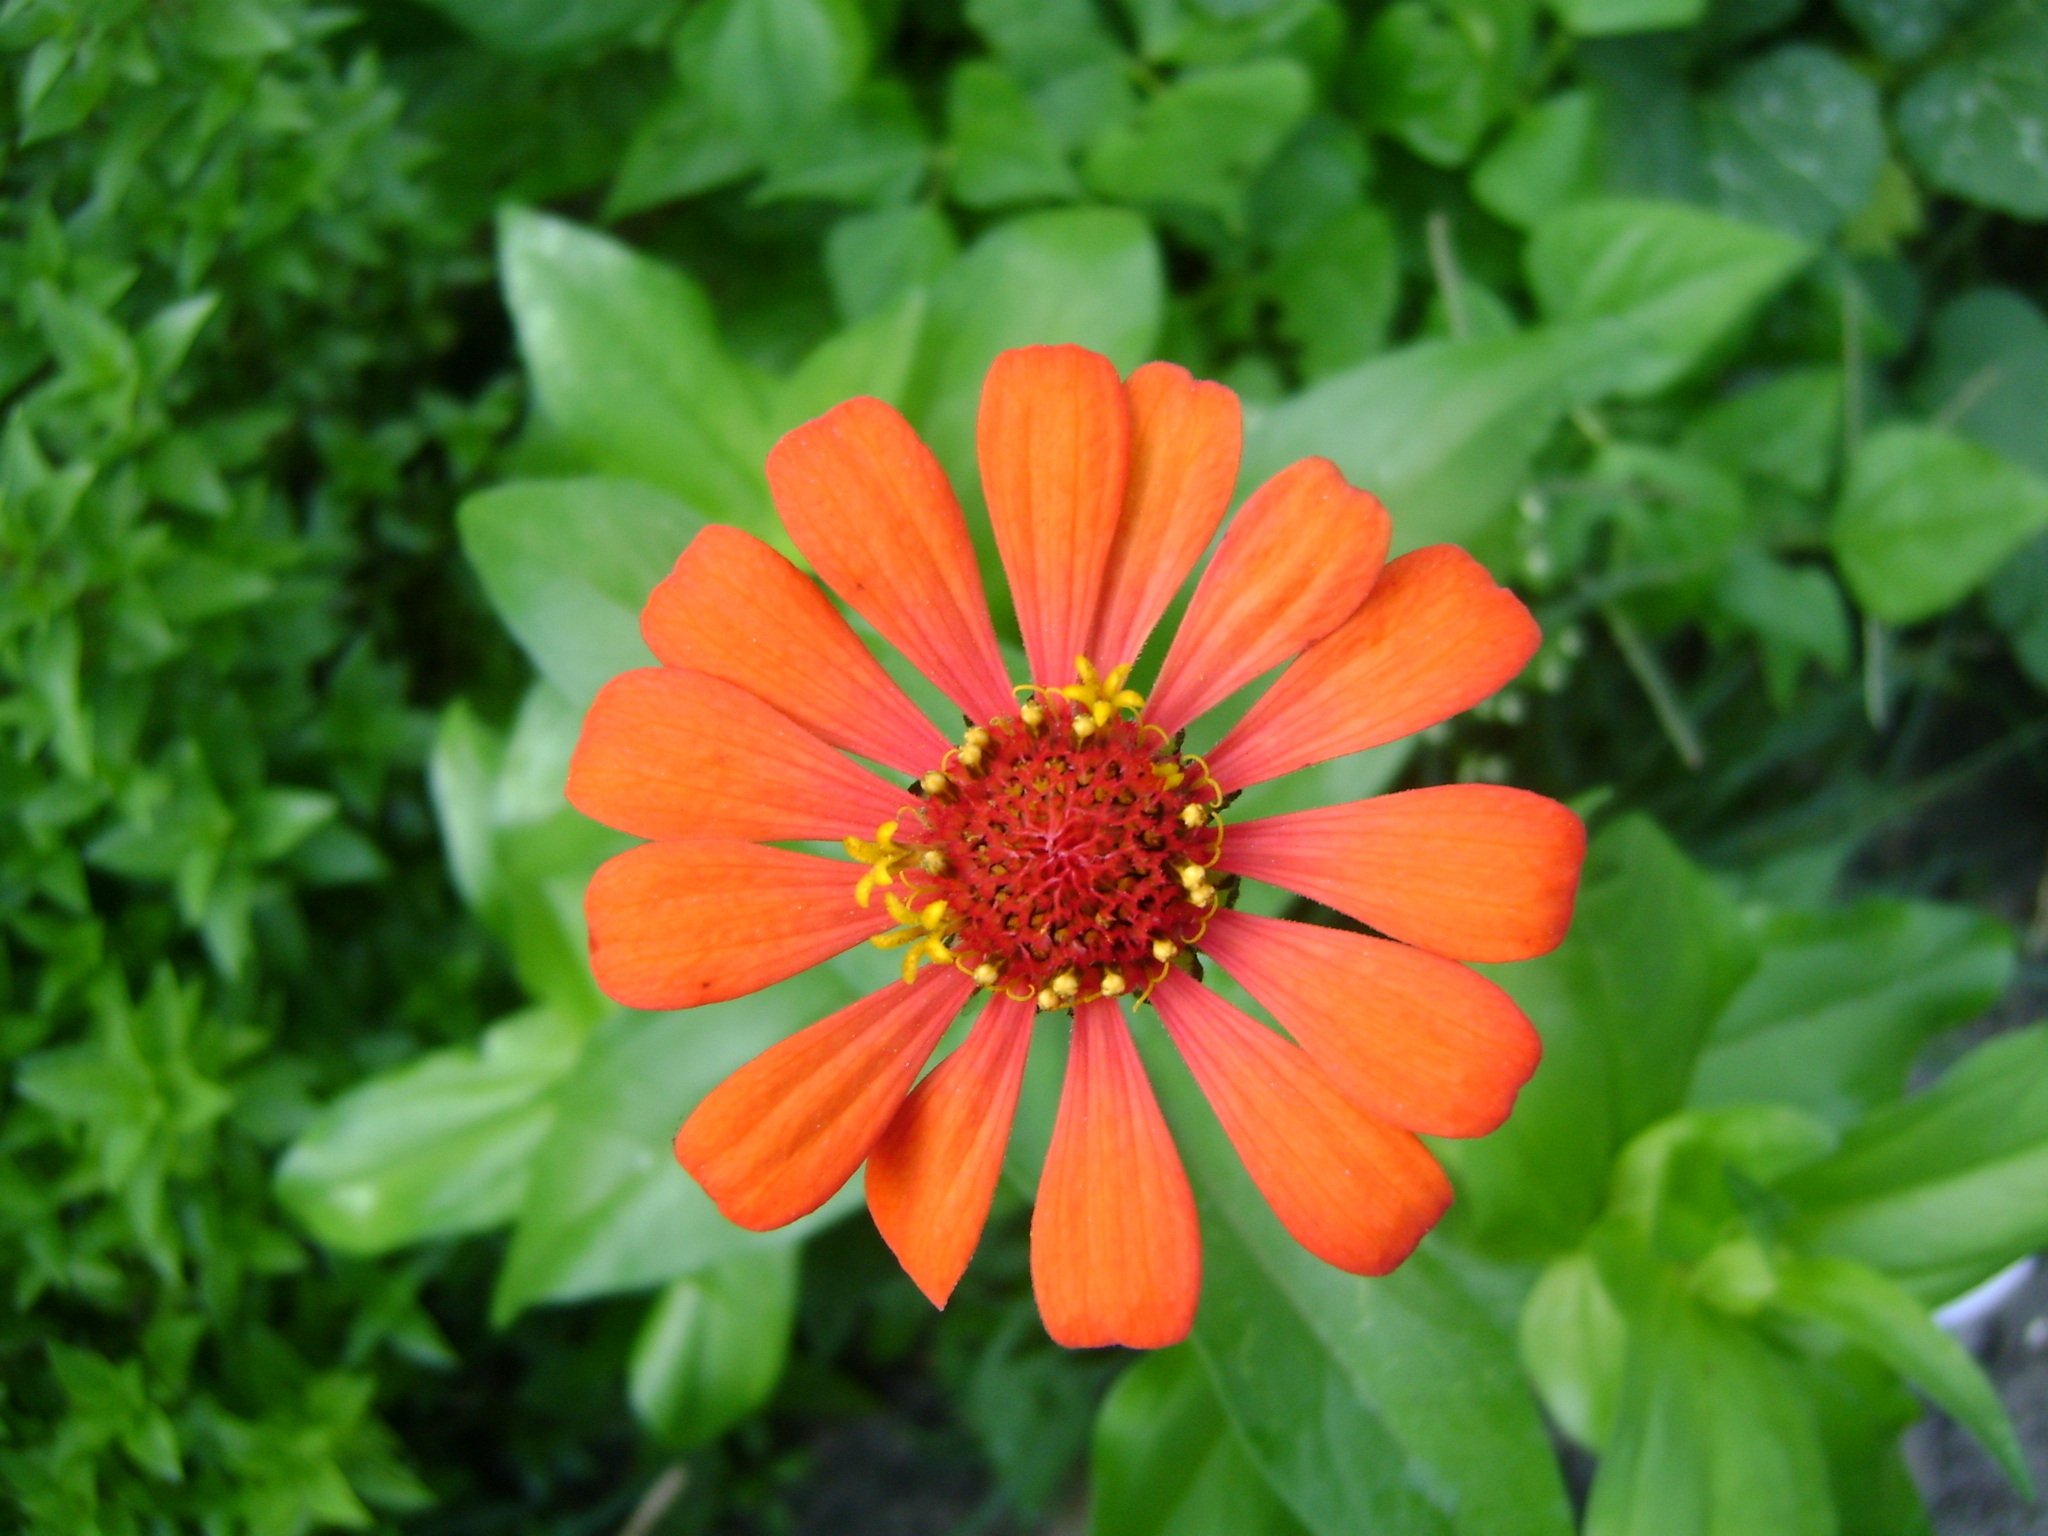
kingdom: Plantae
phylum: Tracheophyta
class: Magnoliopsida
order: Asterales
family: Asteraceae
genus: Zinnia
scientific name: Zinnia elegans
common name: Youth-and-age
